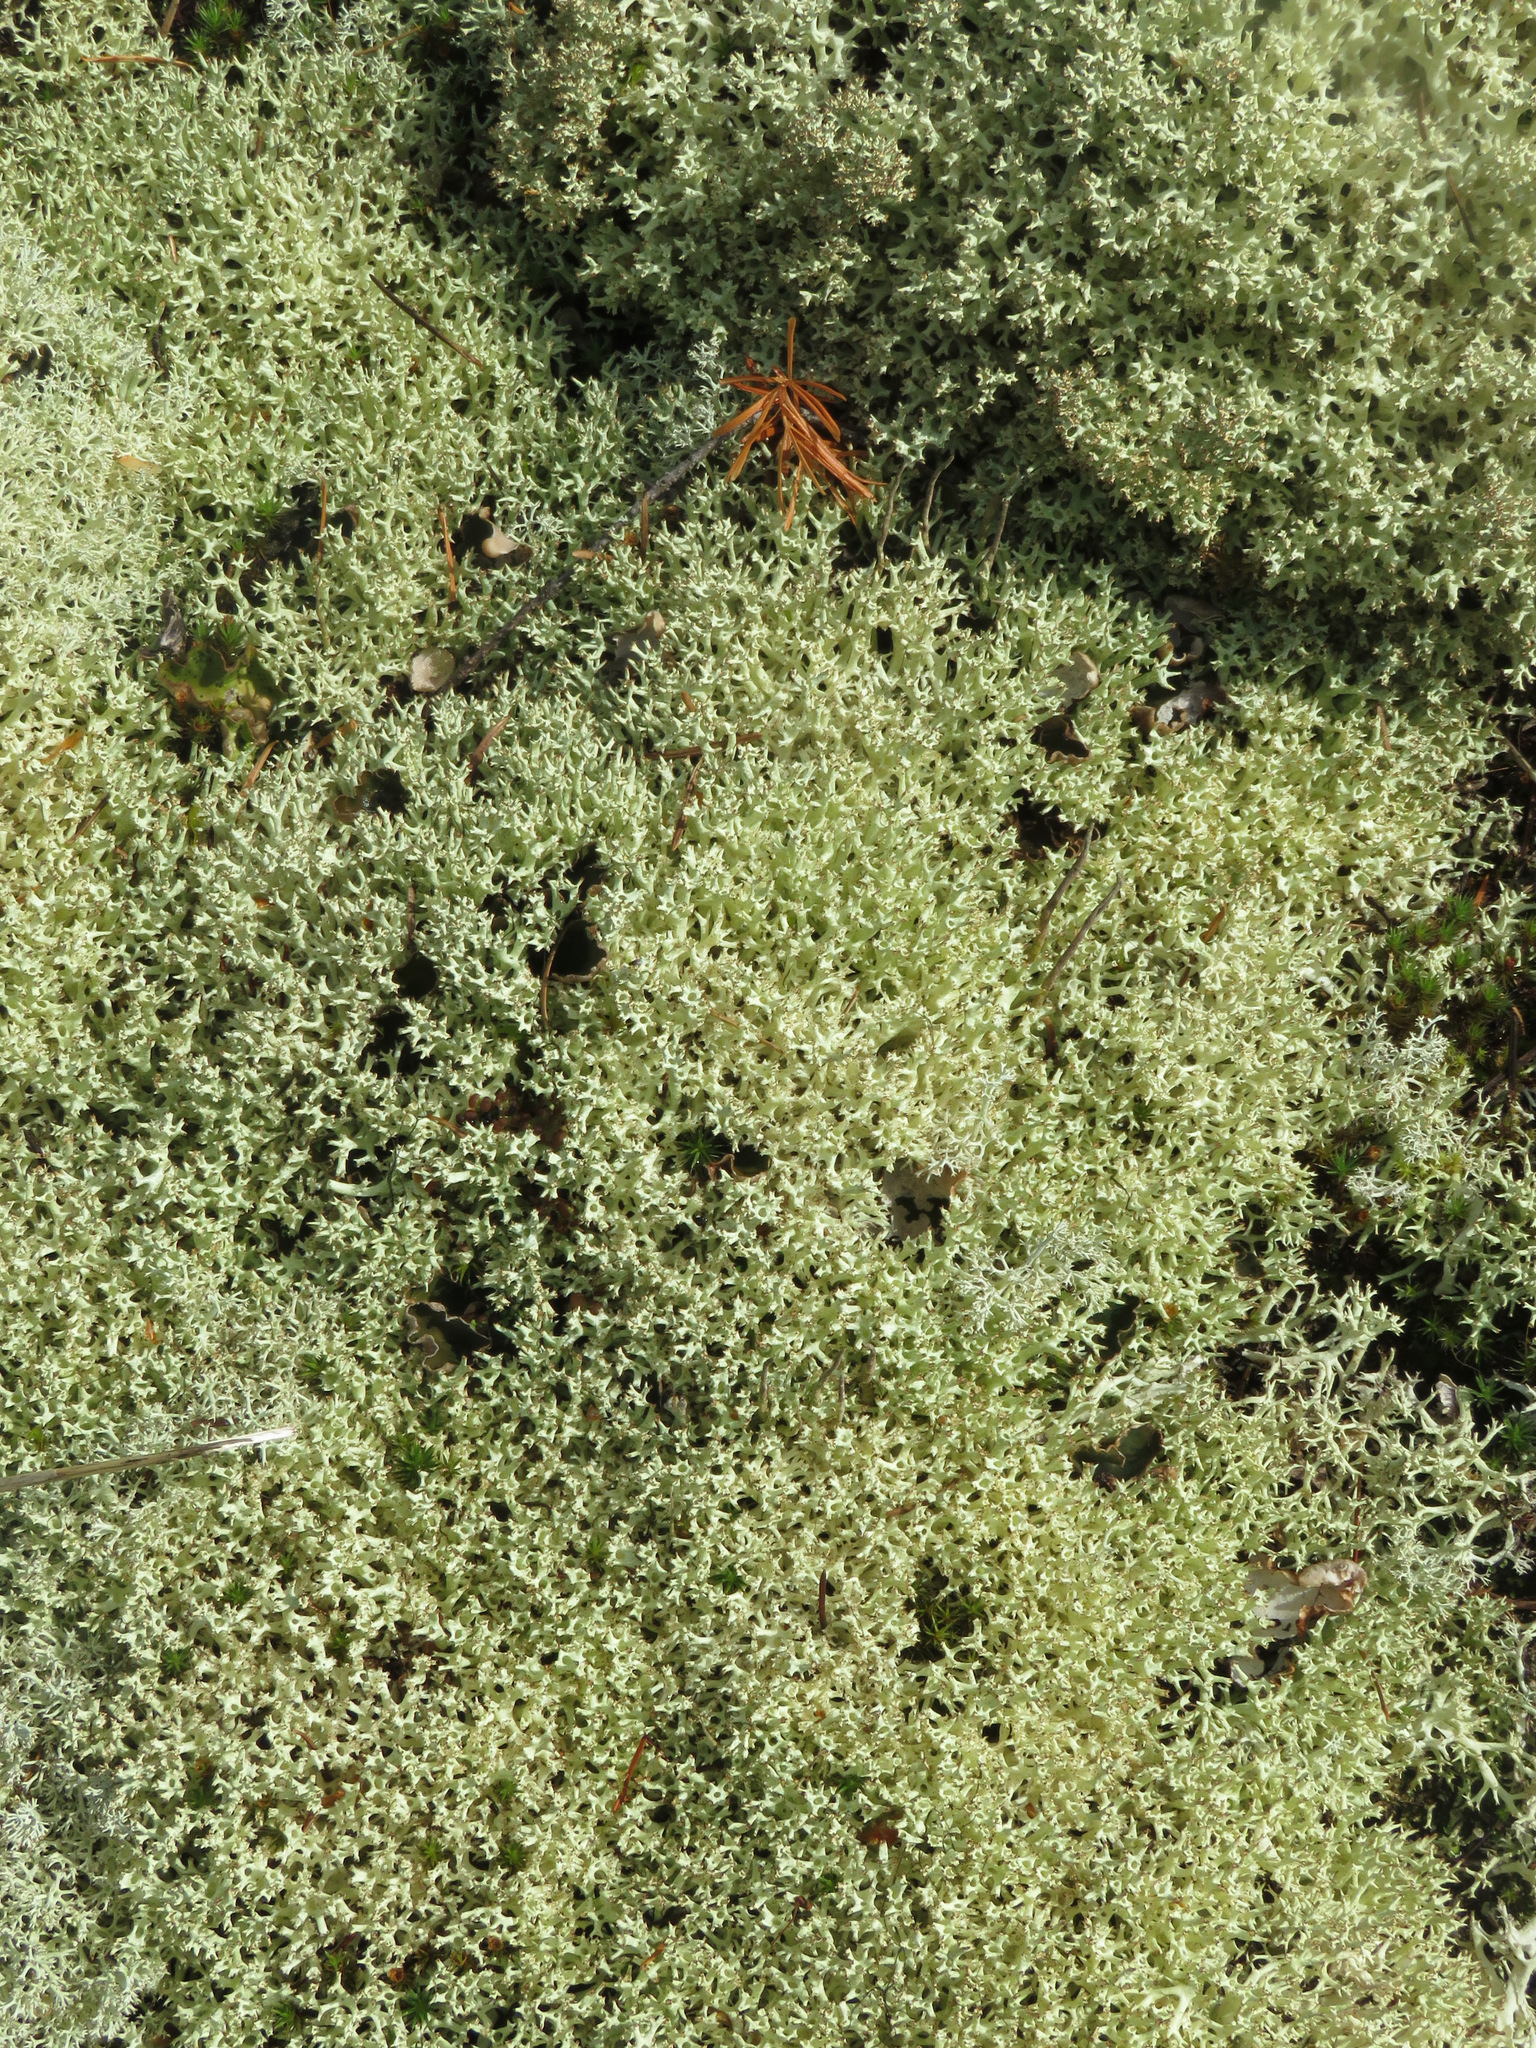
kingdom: Fungi
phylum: Ascomycota
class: Lecanoromycetes
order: Lecanorales
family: Cladoniaceae
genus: Cladonia
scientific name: Cladonia uncialis
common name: Thorn lichen
